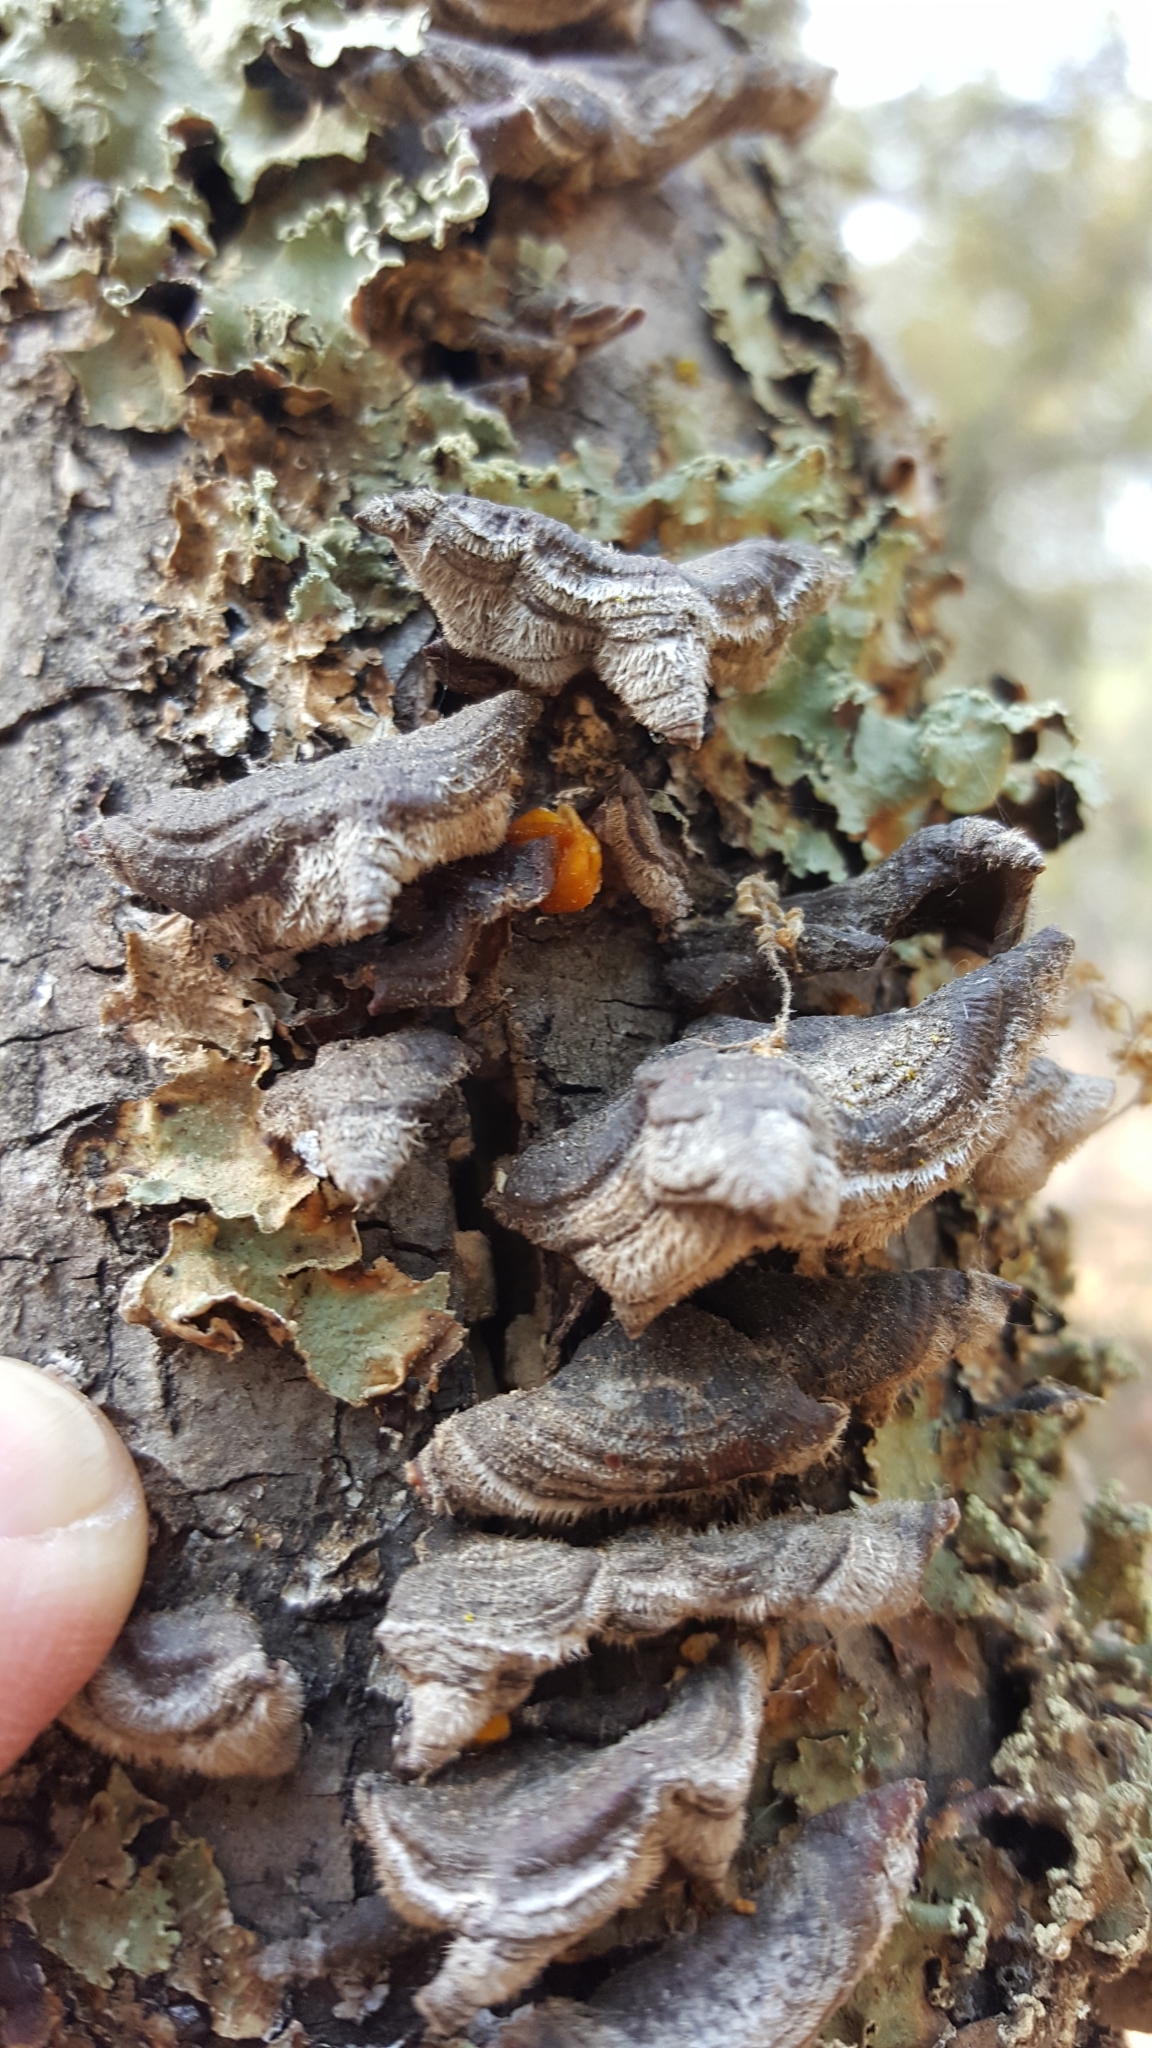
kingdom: Fungi
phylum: Basidiomycota
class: Agaricomycetes
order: Russulales
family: Stereaceae
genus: Stereum
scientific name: Stereum hirsutum
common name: Hairy curtain crust
